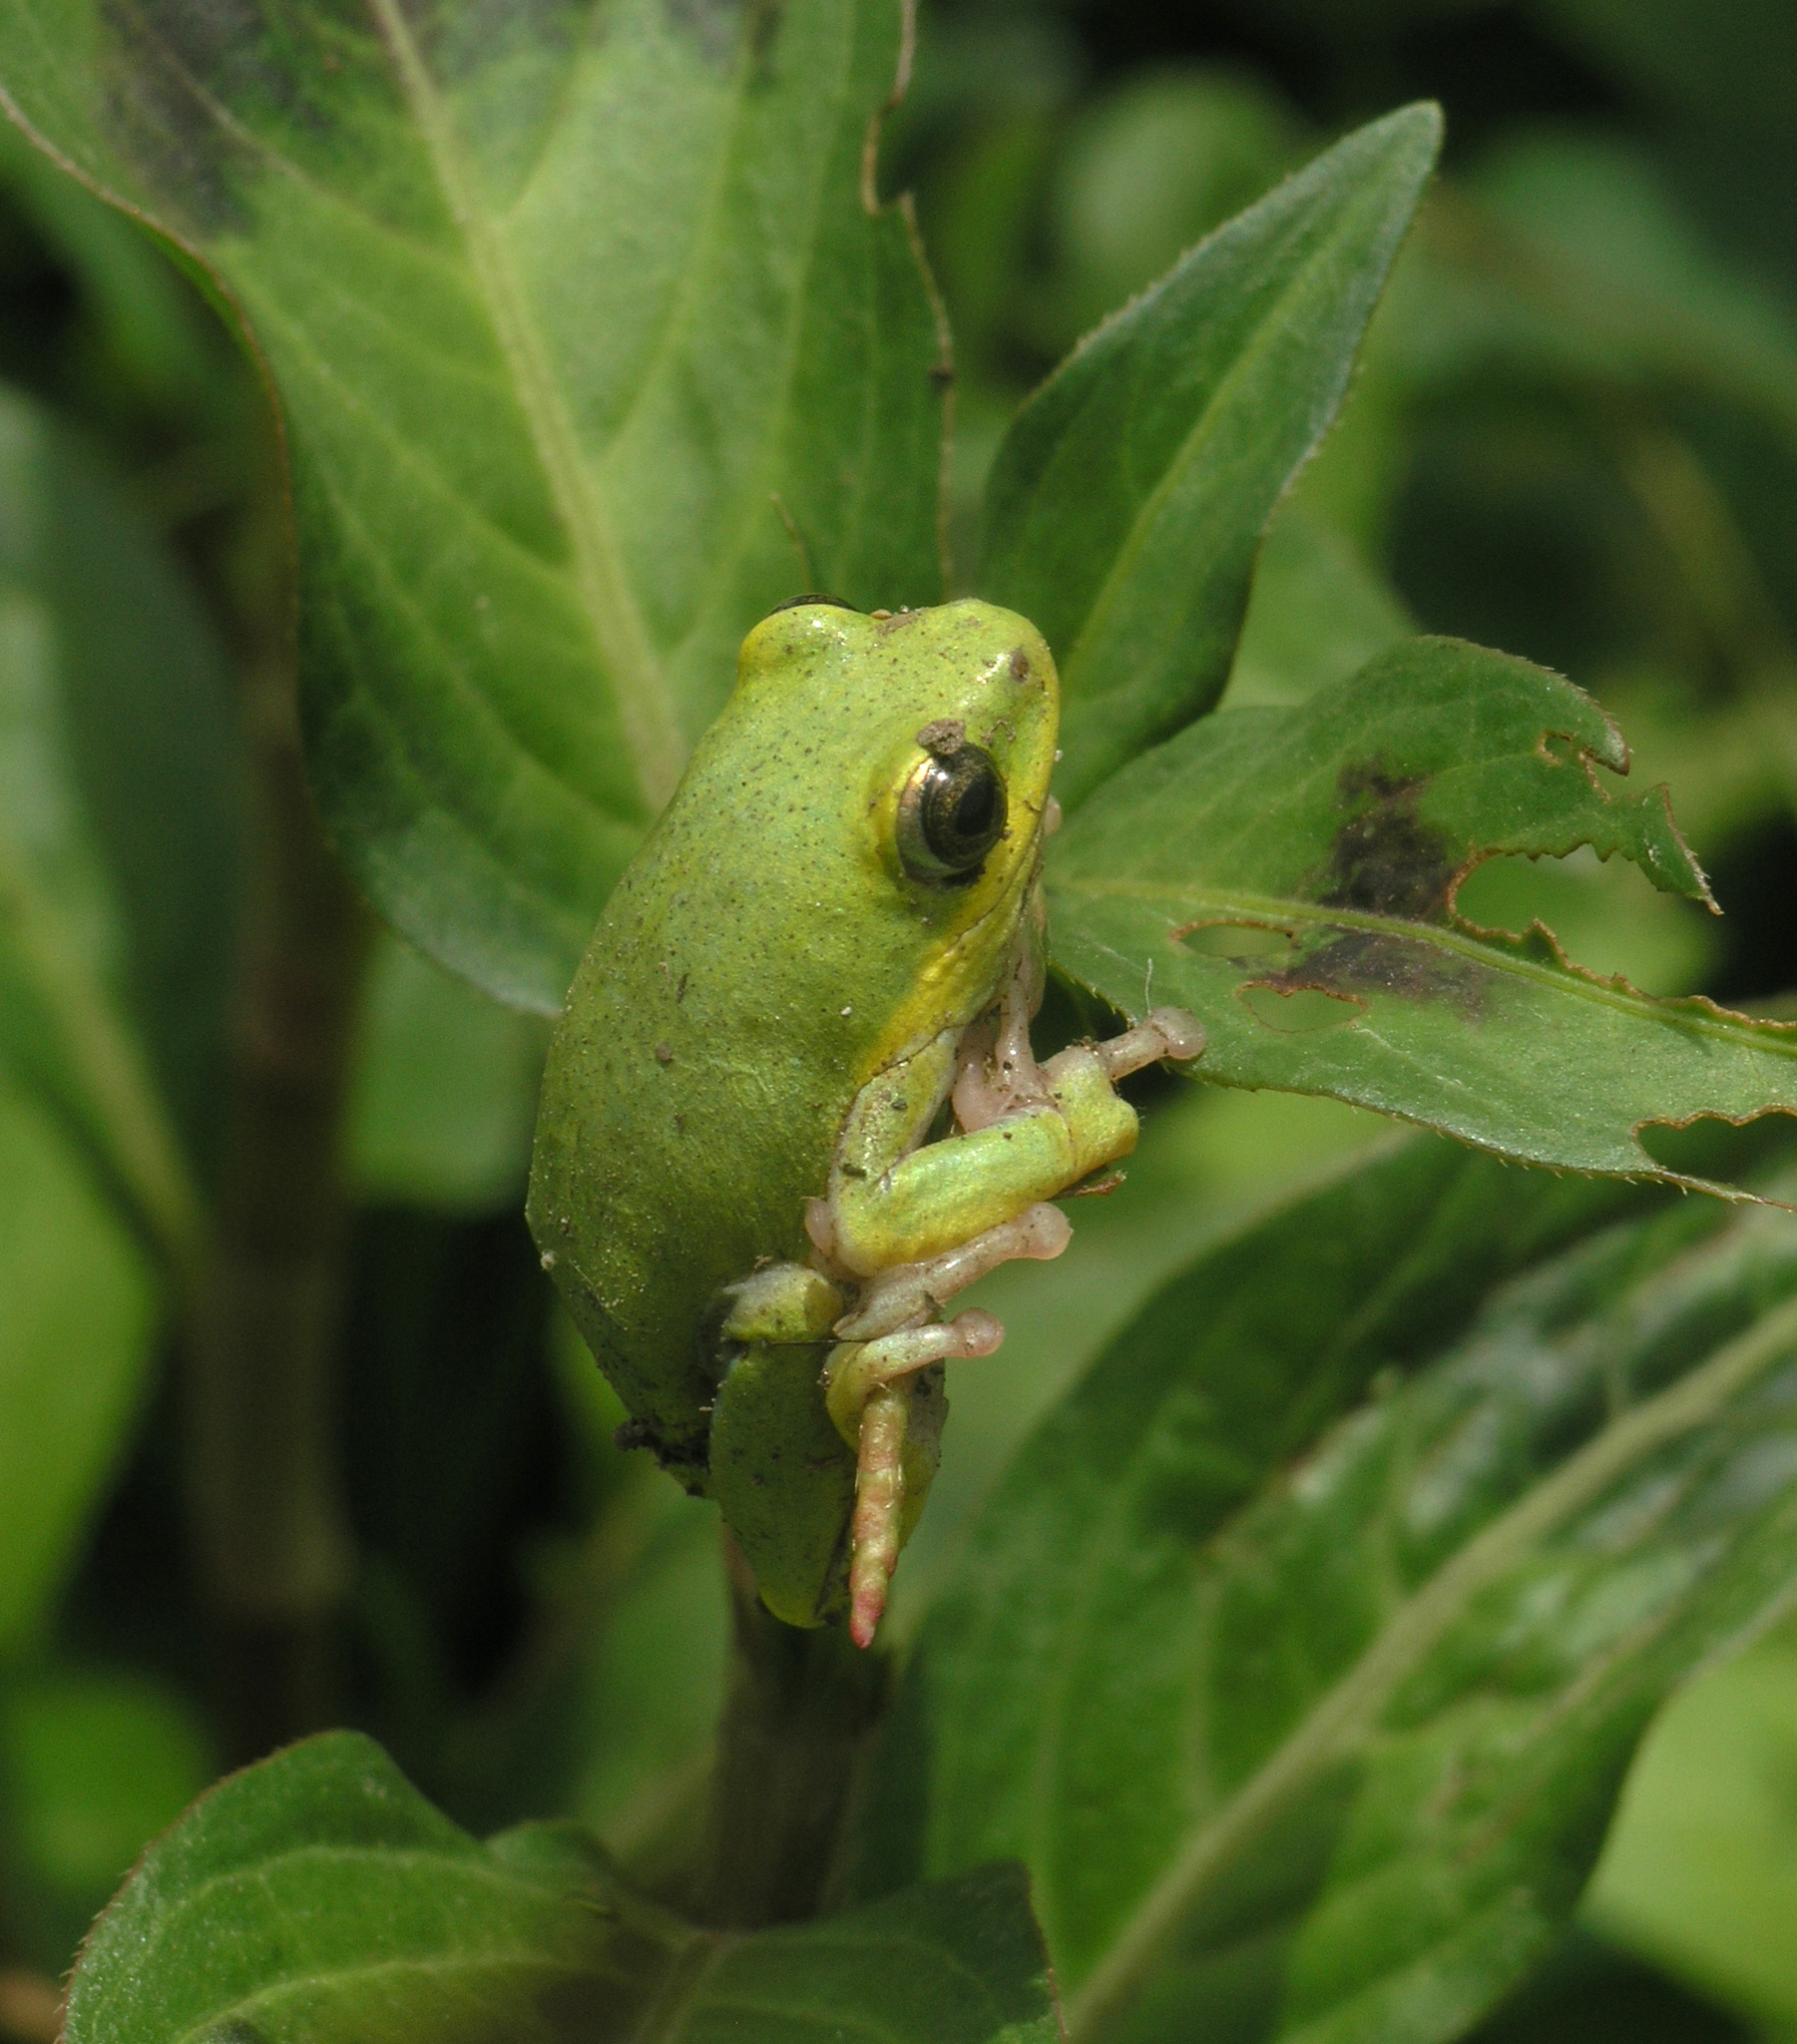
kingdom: Animalia
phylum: Chordata
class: Amphibia
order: Anura
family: Hyperoliidae
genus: Hyperolius
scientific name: Hyperolius viridiflavus
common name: Common reed frog
